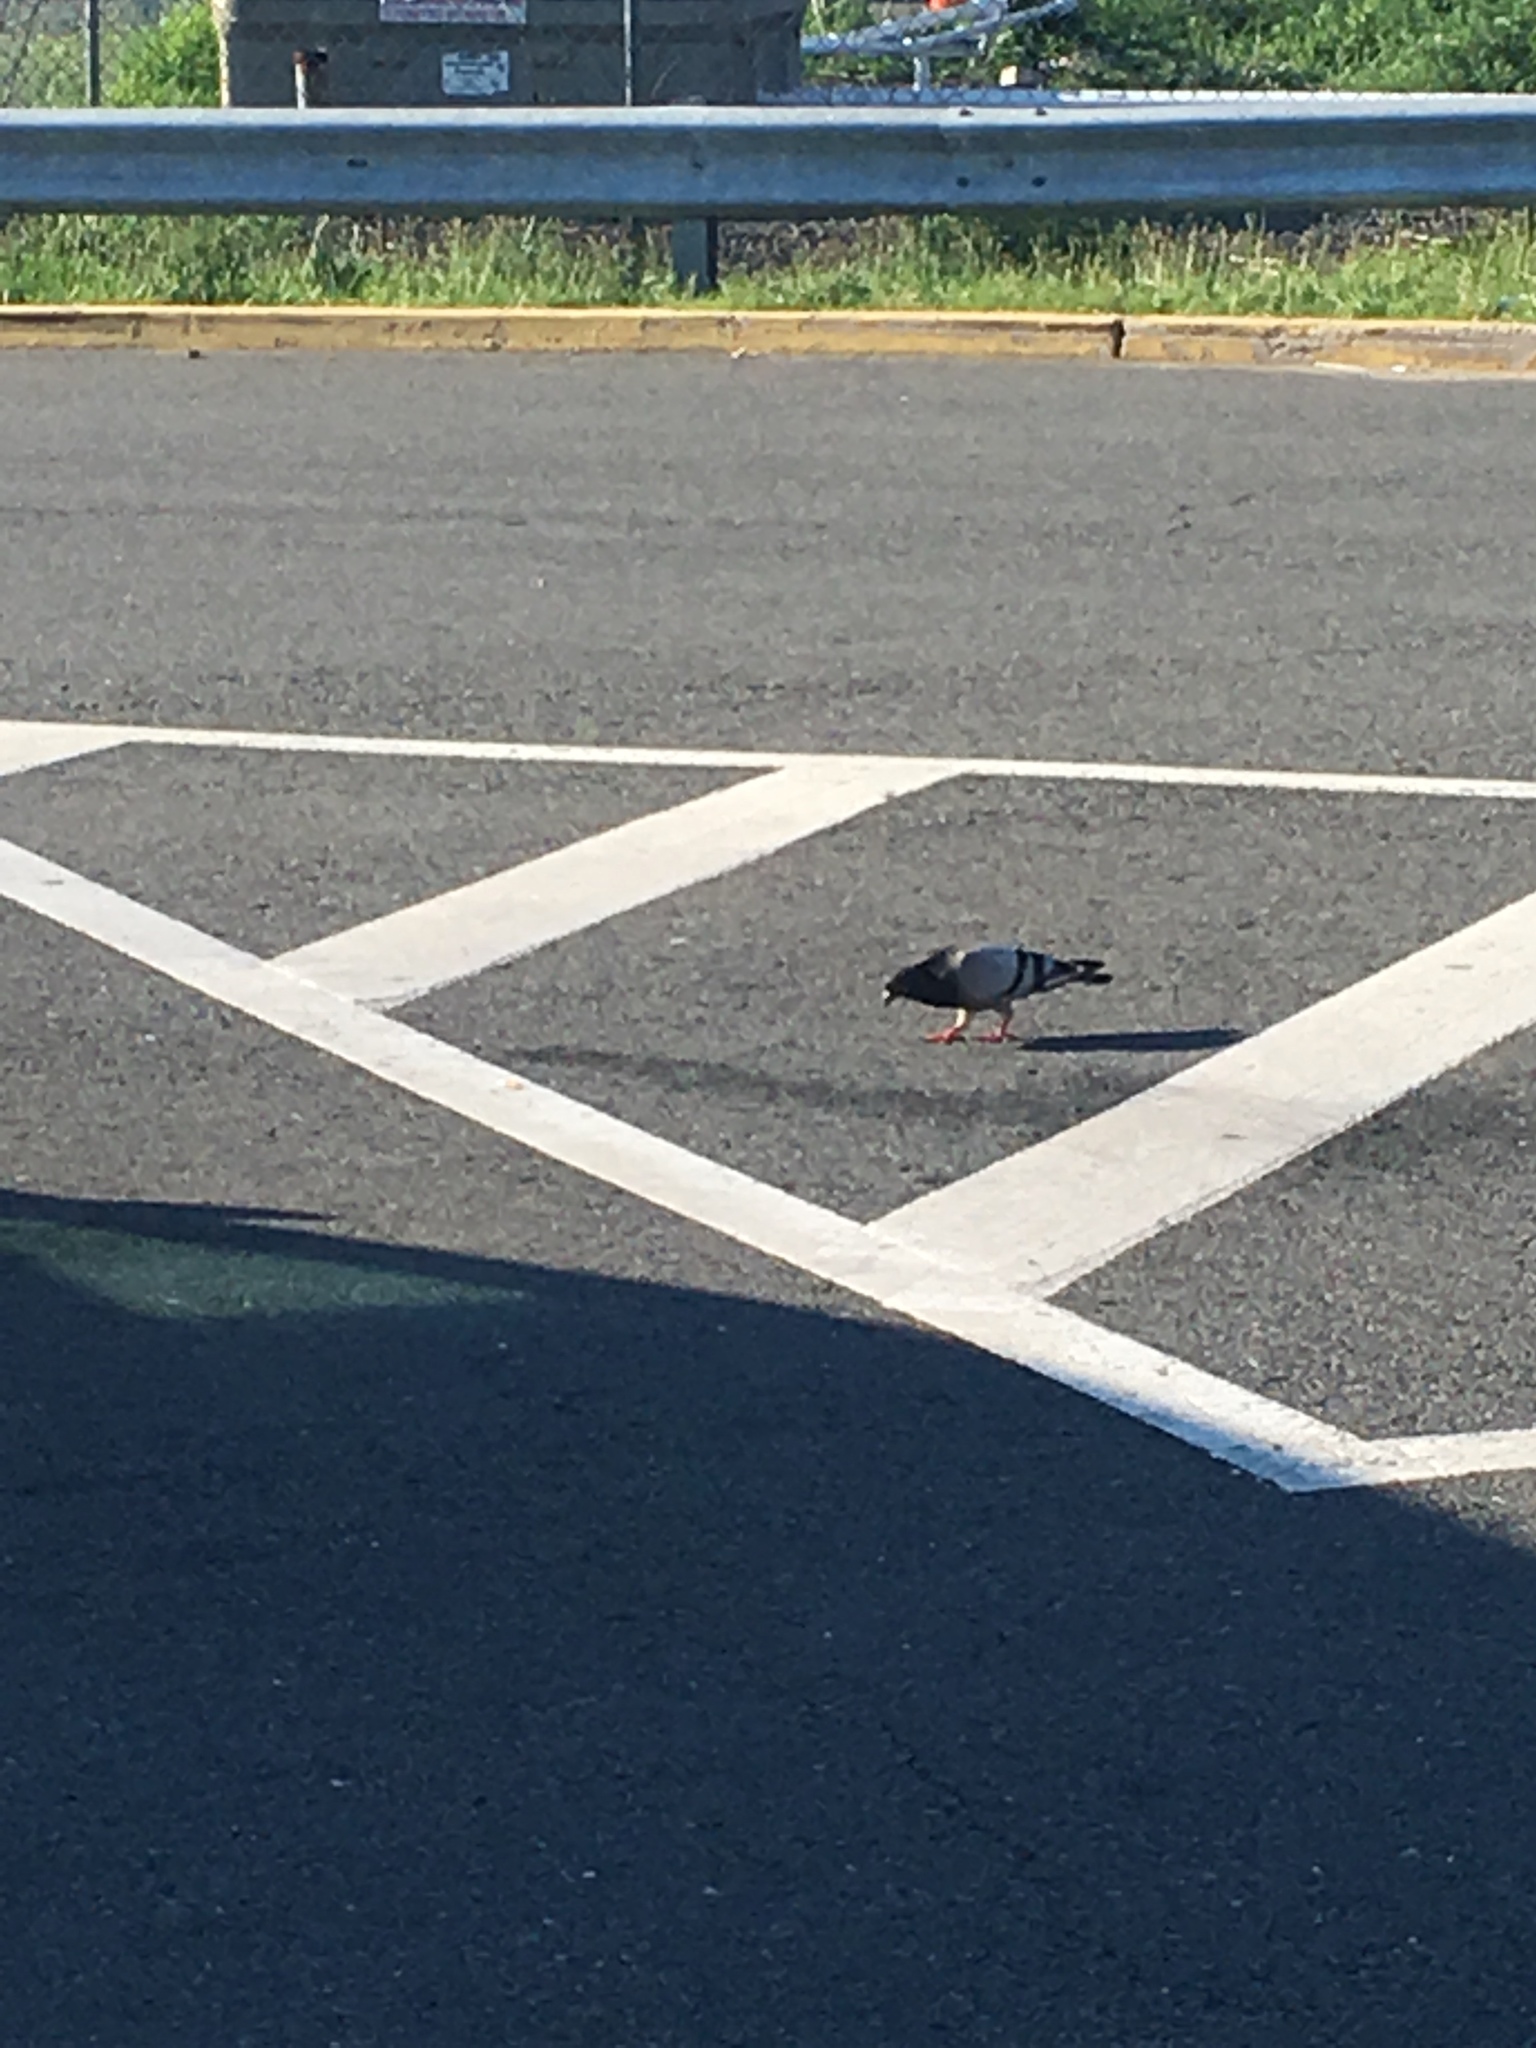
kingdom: Animalia
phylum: Chordata
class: Aves
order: Columbiformes
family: Columbidae
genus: Columba
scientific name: Columba livia
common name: Rock pigeon
